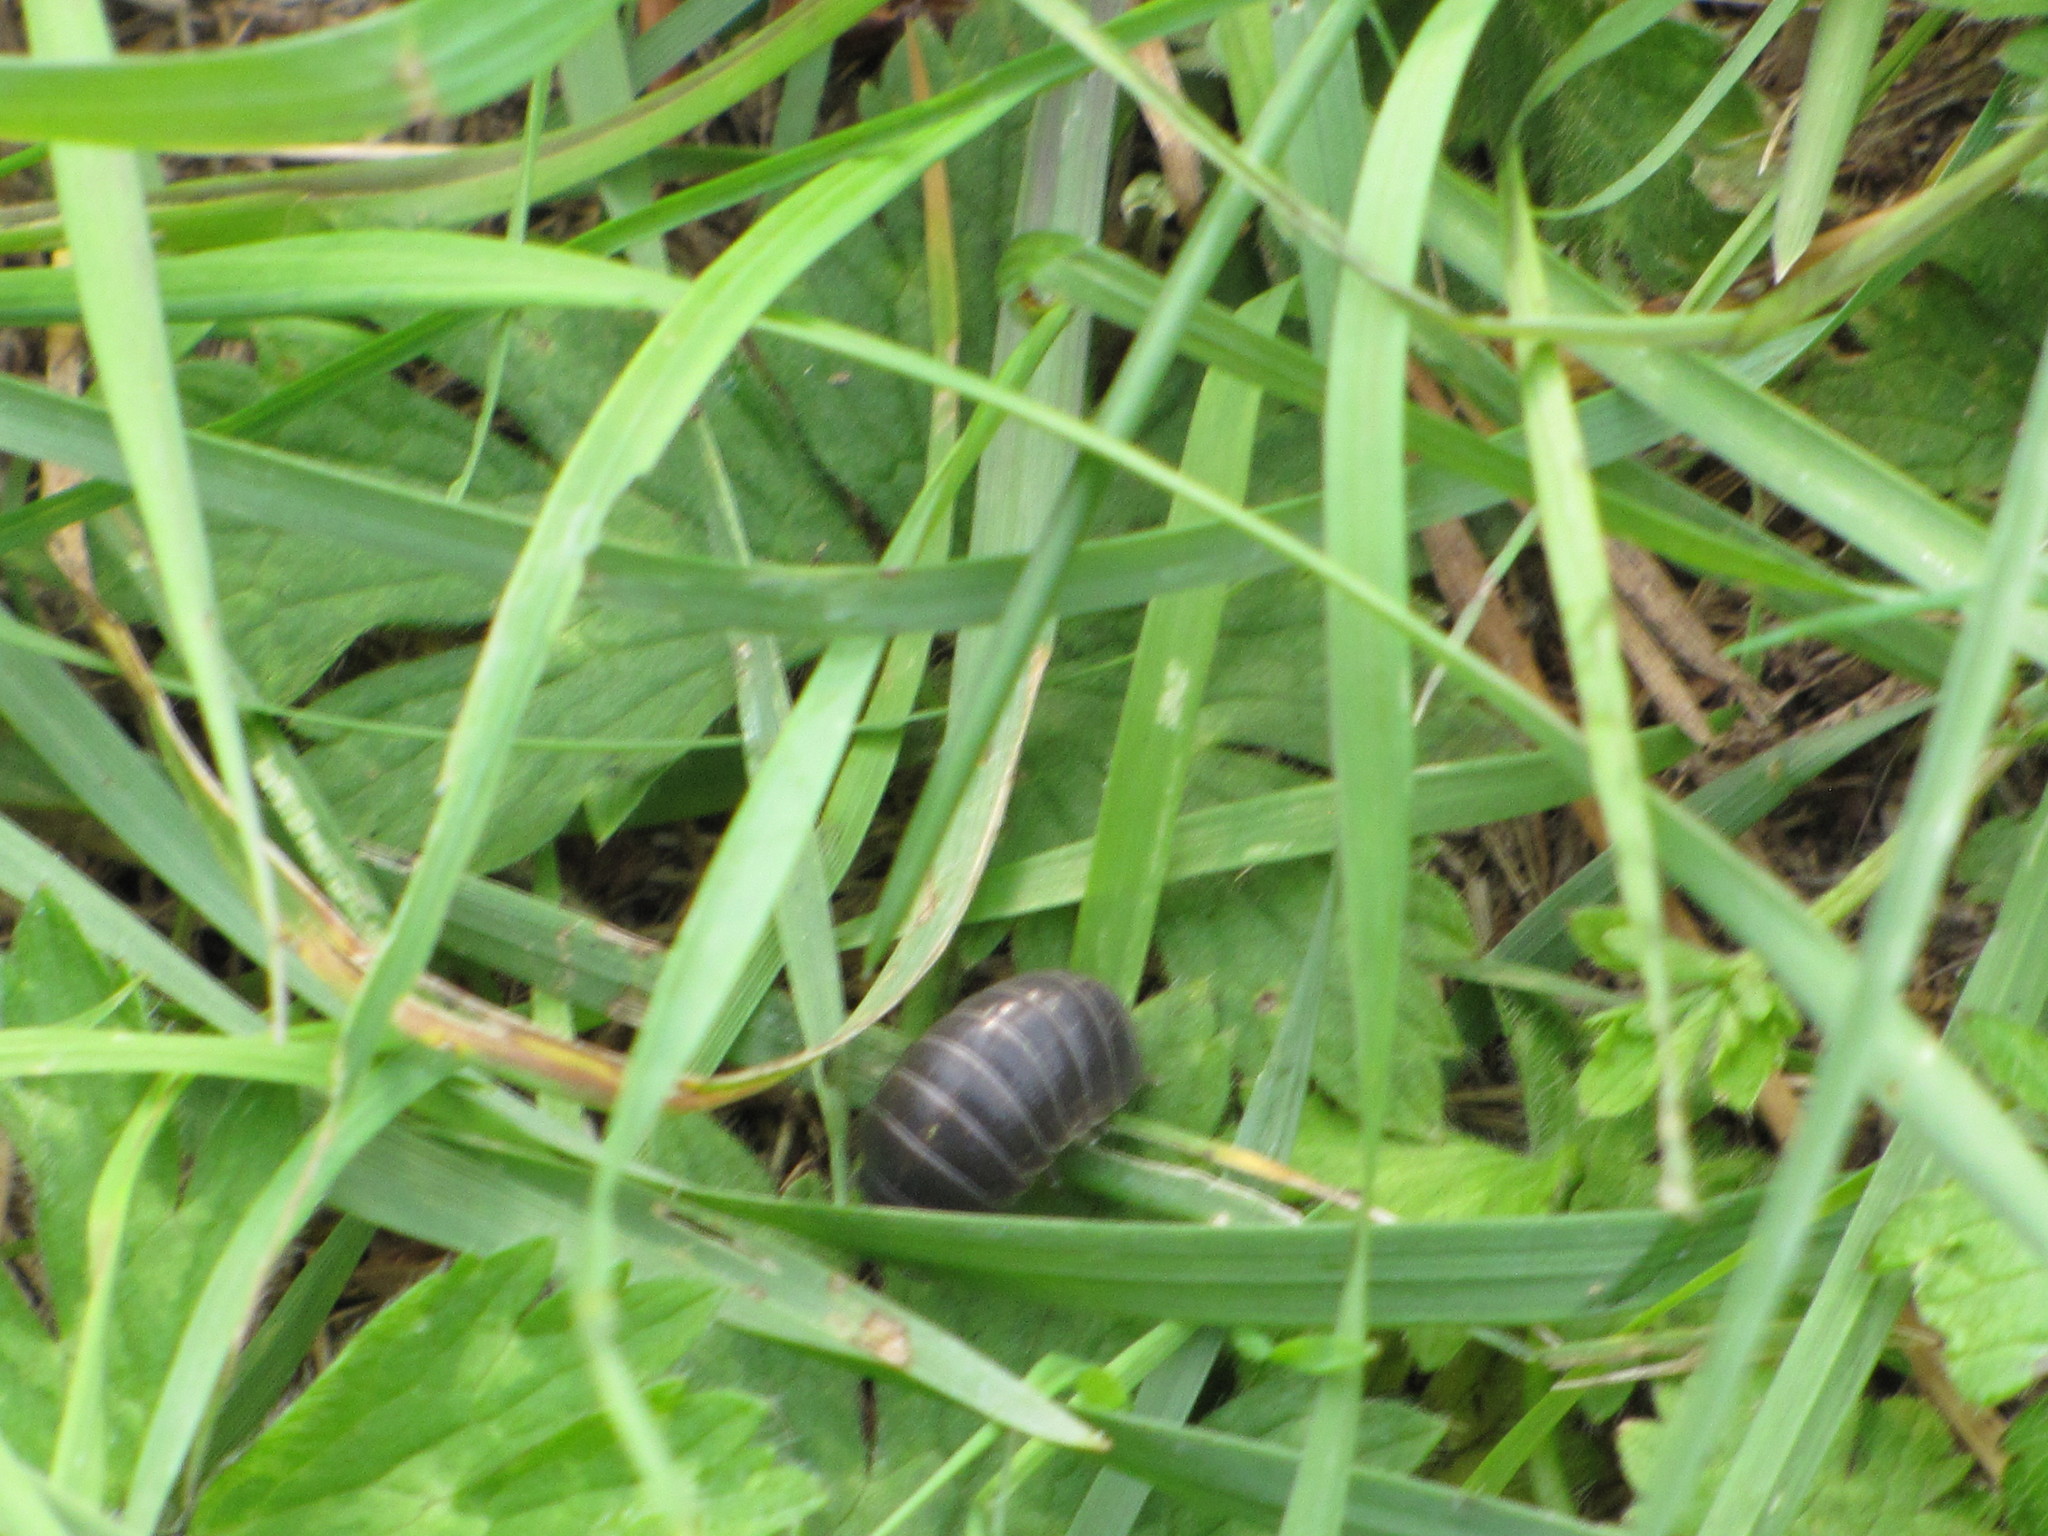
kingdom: Animalia
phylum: Arthropoda
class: Malacostraca
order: Isopoda
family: Armadillidiidae
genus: Armadillidium
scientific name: Armadillidium vulgare
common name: Common pill woodlouse
